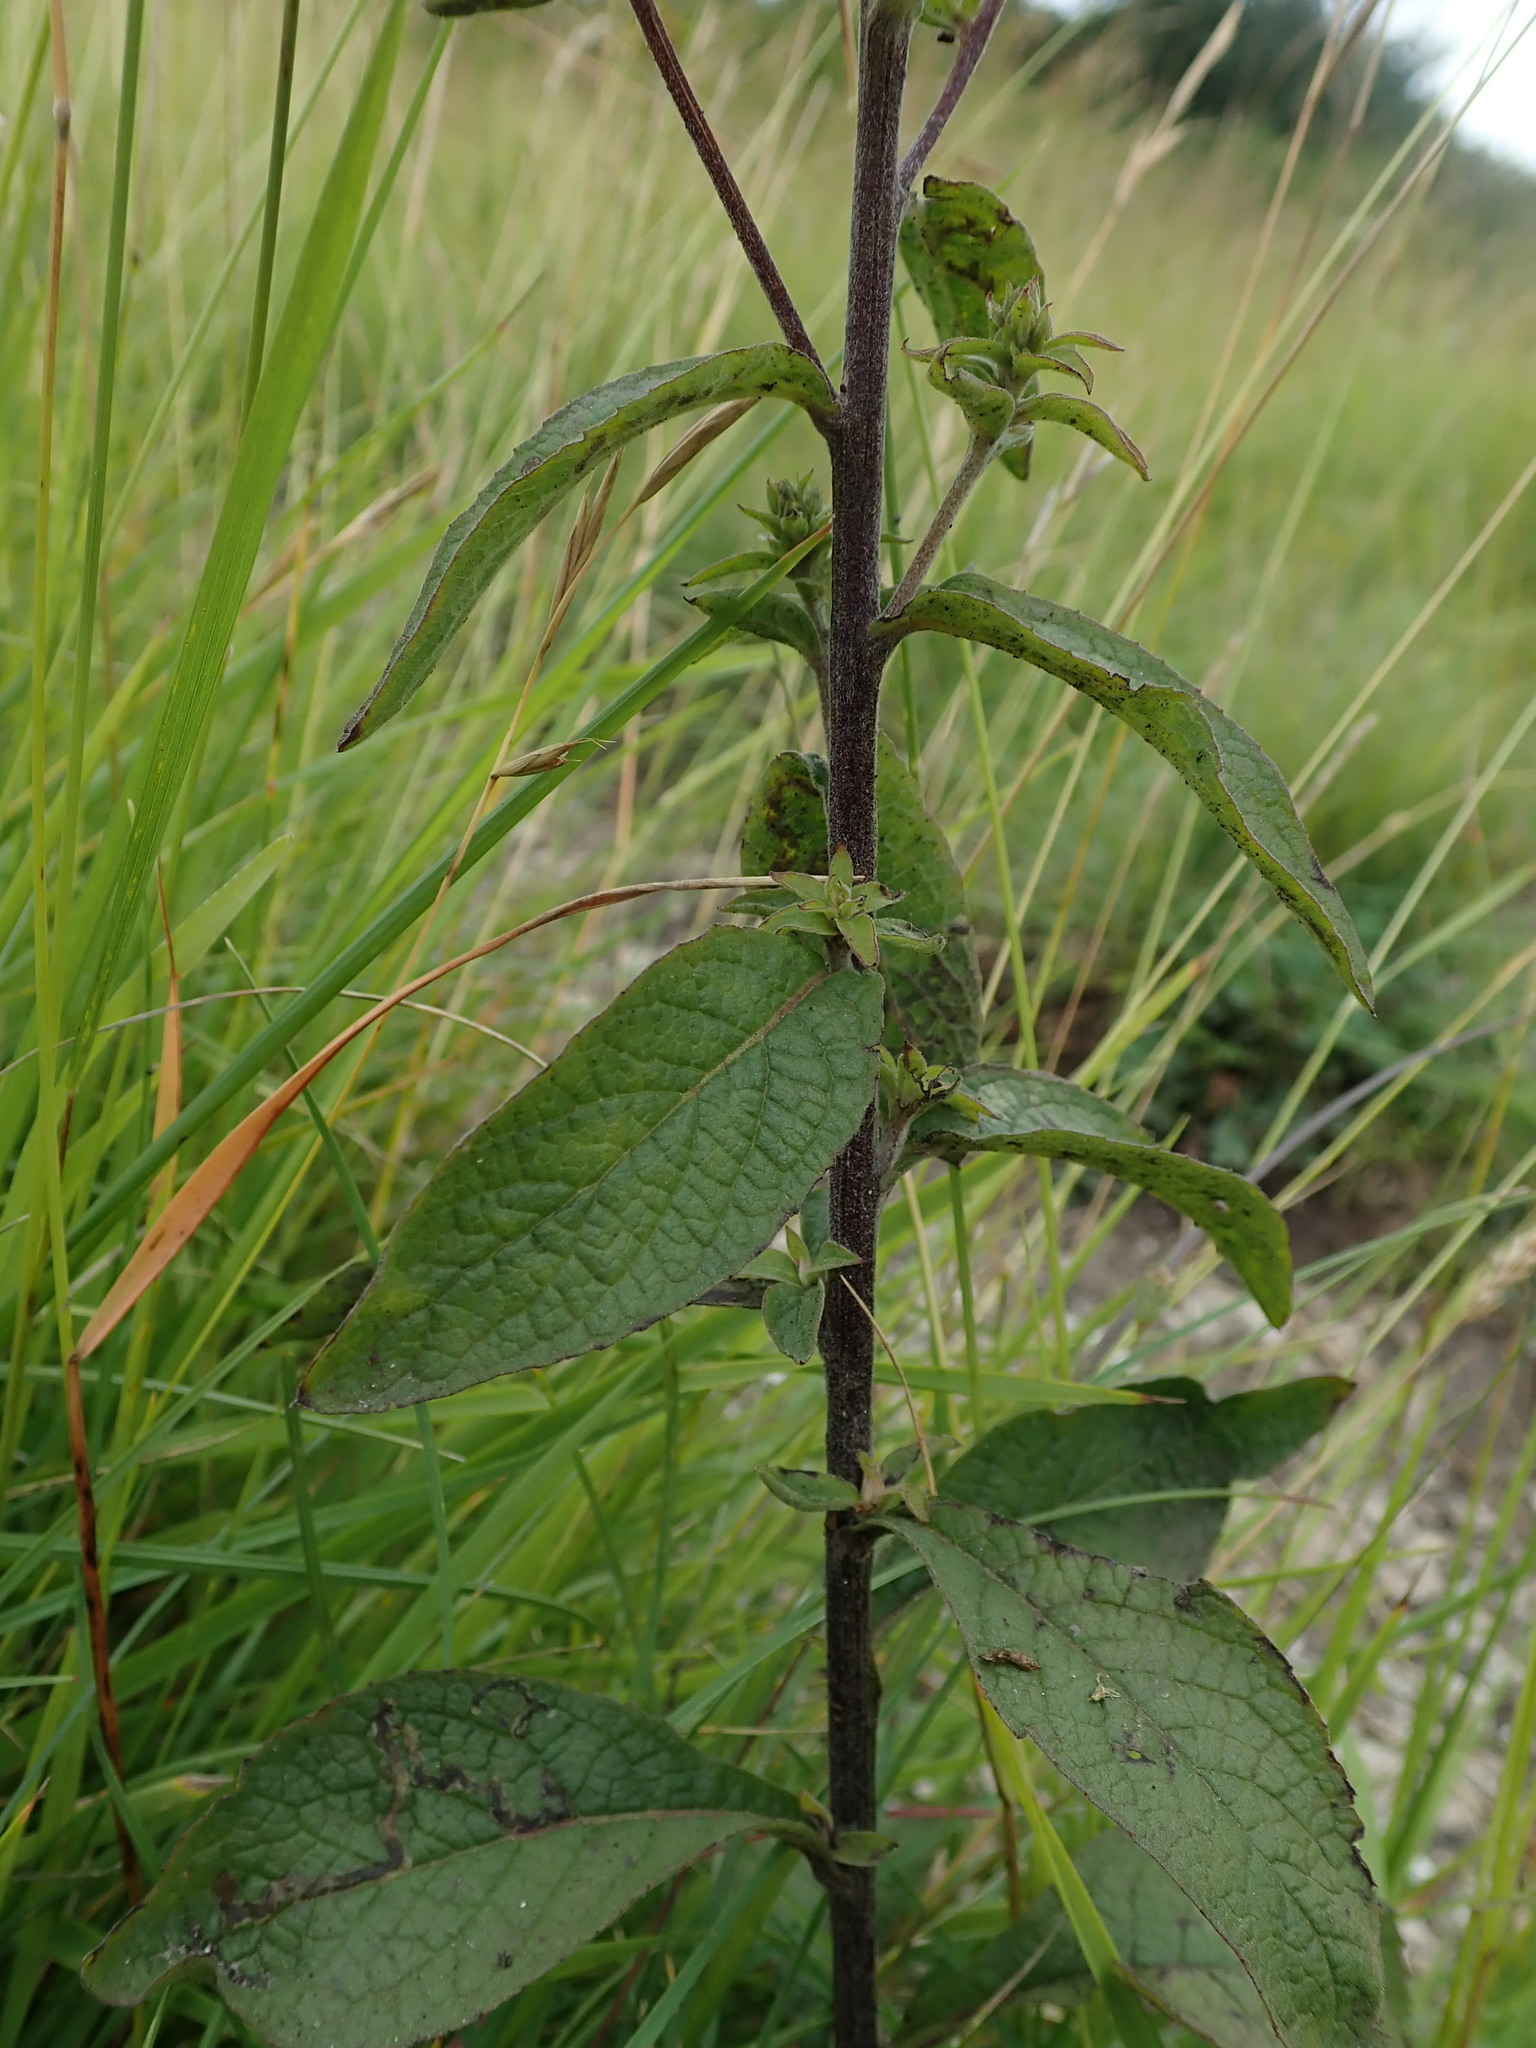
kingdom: Plantae
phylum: Tracheophyta
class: Magnoliopsida
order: Asterales
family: Asteraceae
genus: Pentanema
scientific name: Pentanema squarrosum
